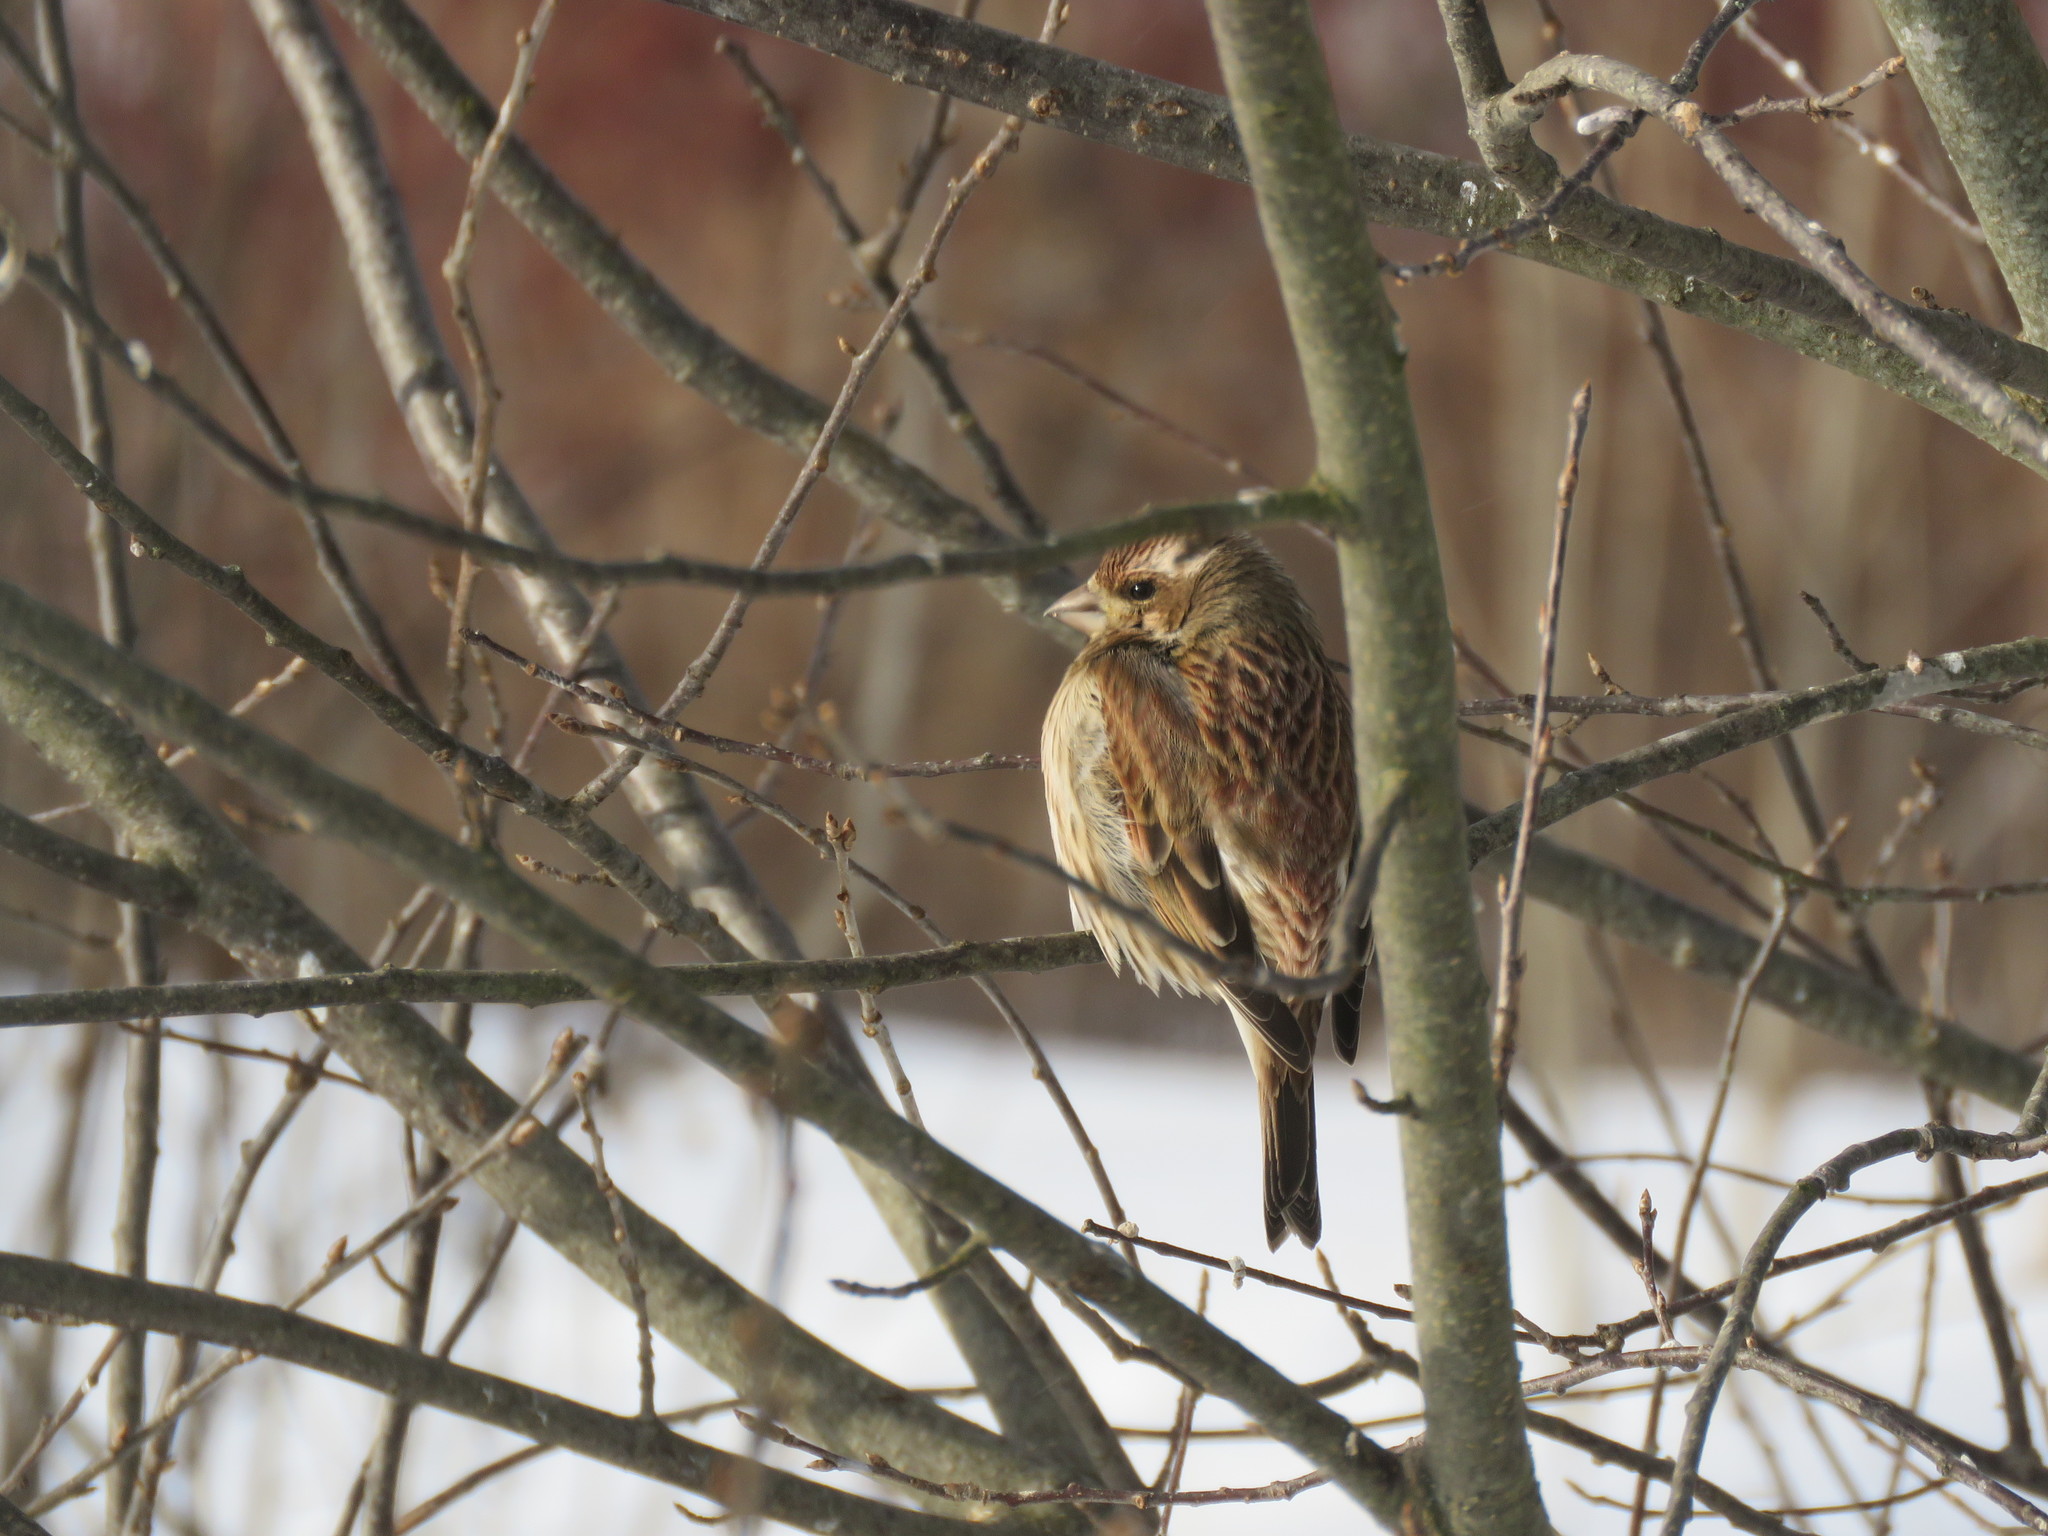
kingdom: Animalia
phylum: Chordata
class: Aves
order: Passeriformes
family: Fringillidae
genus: Haemorhous
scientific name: Haemorhous purpureus
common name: Purple finch
